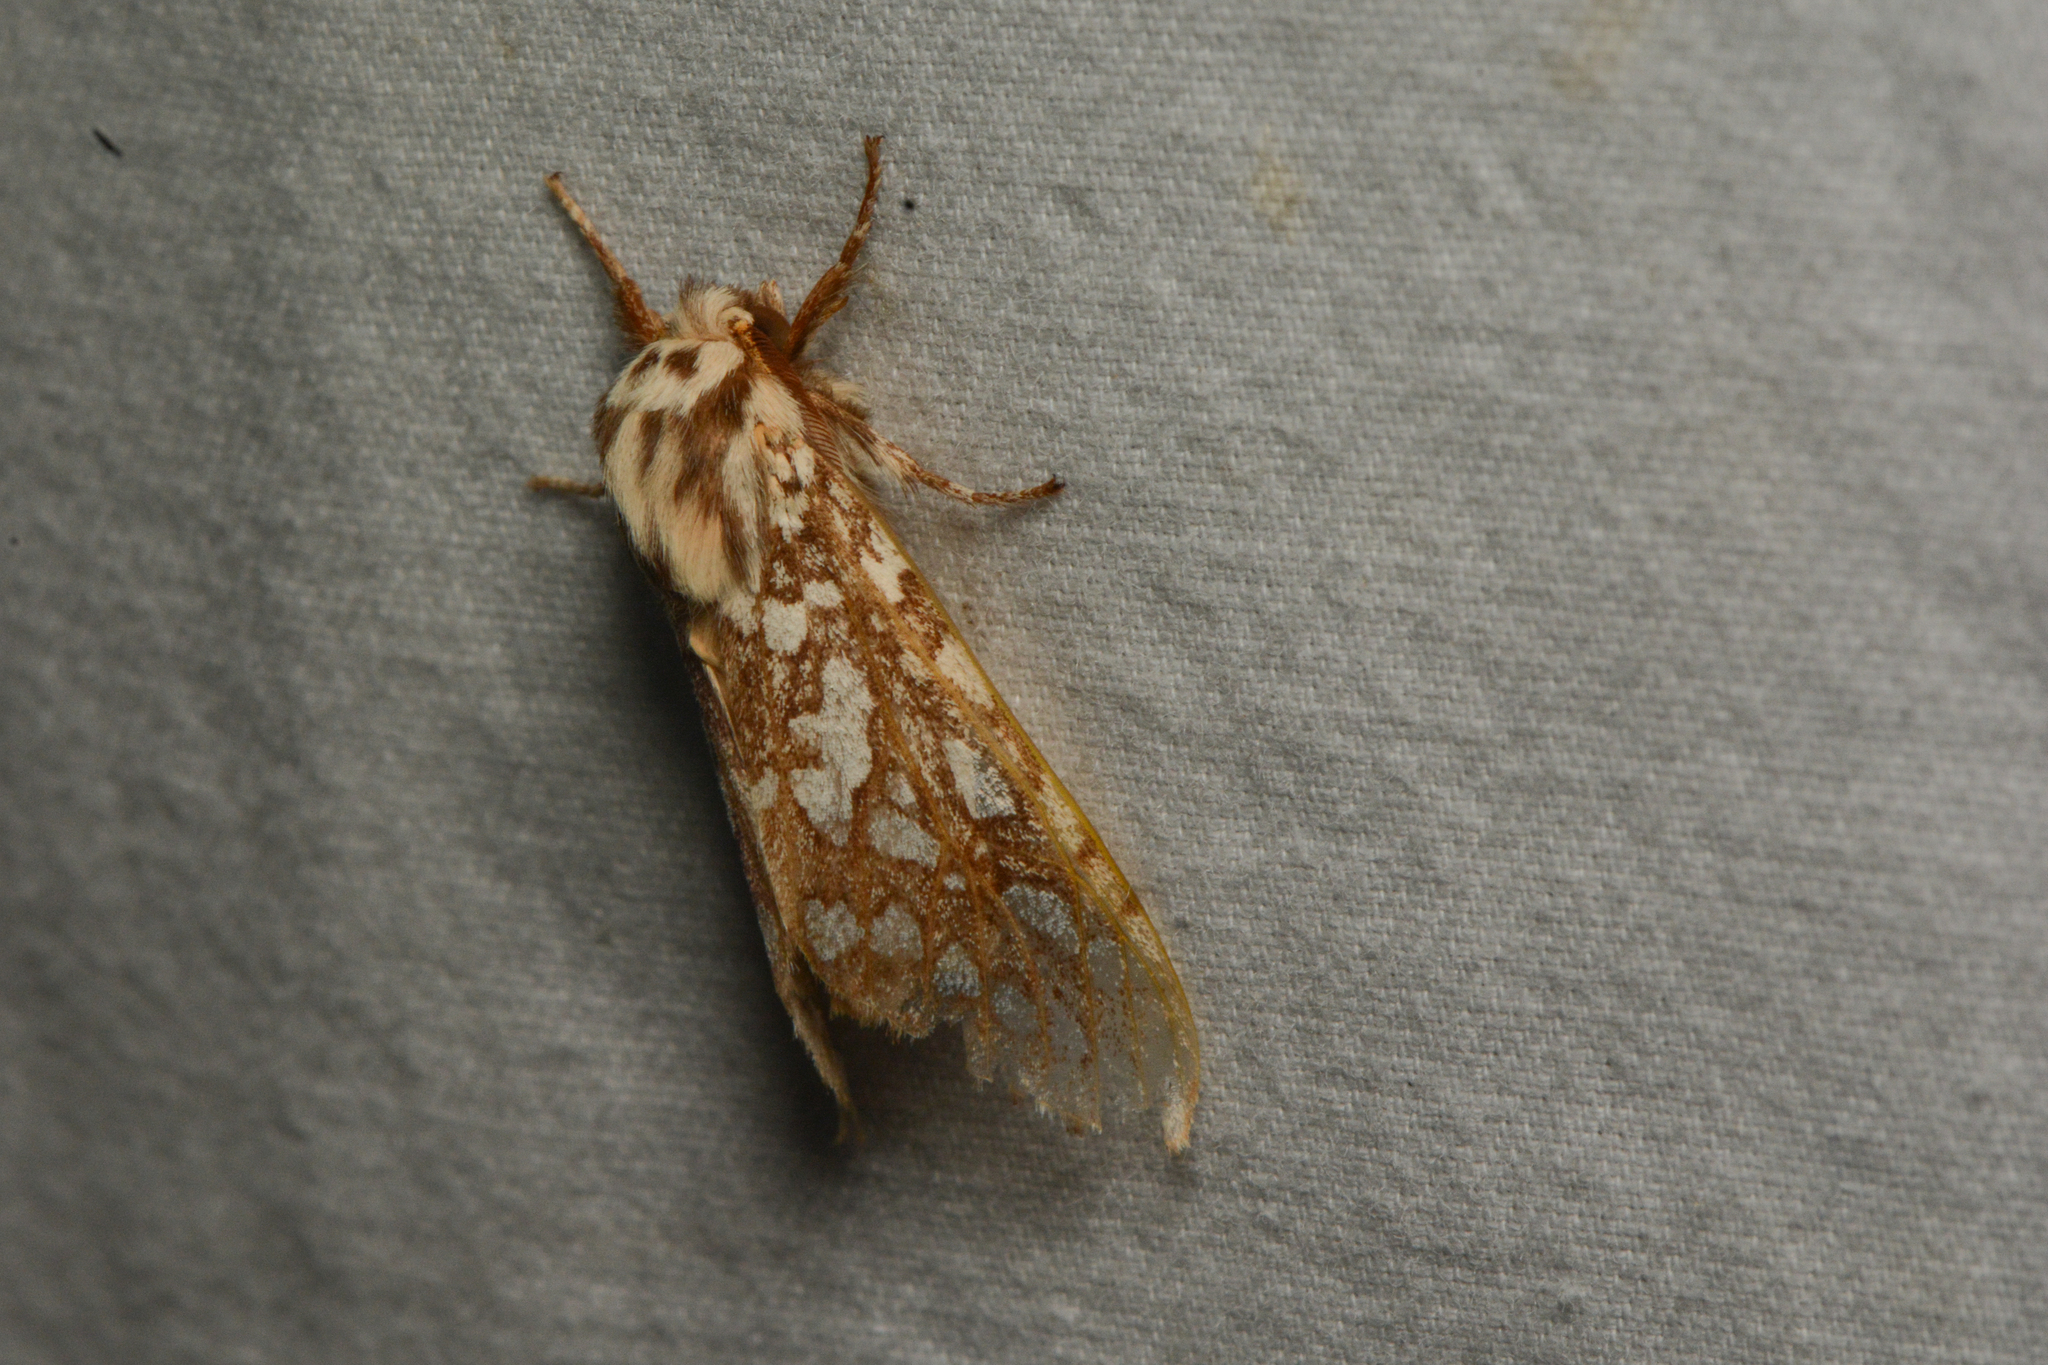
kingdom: Animalia
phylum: Arthropoda
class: Insecta
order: Lepidoptera
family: Erebidae
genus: Lophocampa
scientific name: Lophocampa argentata
